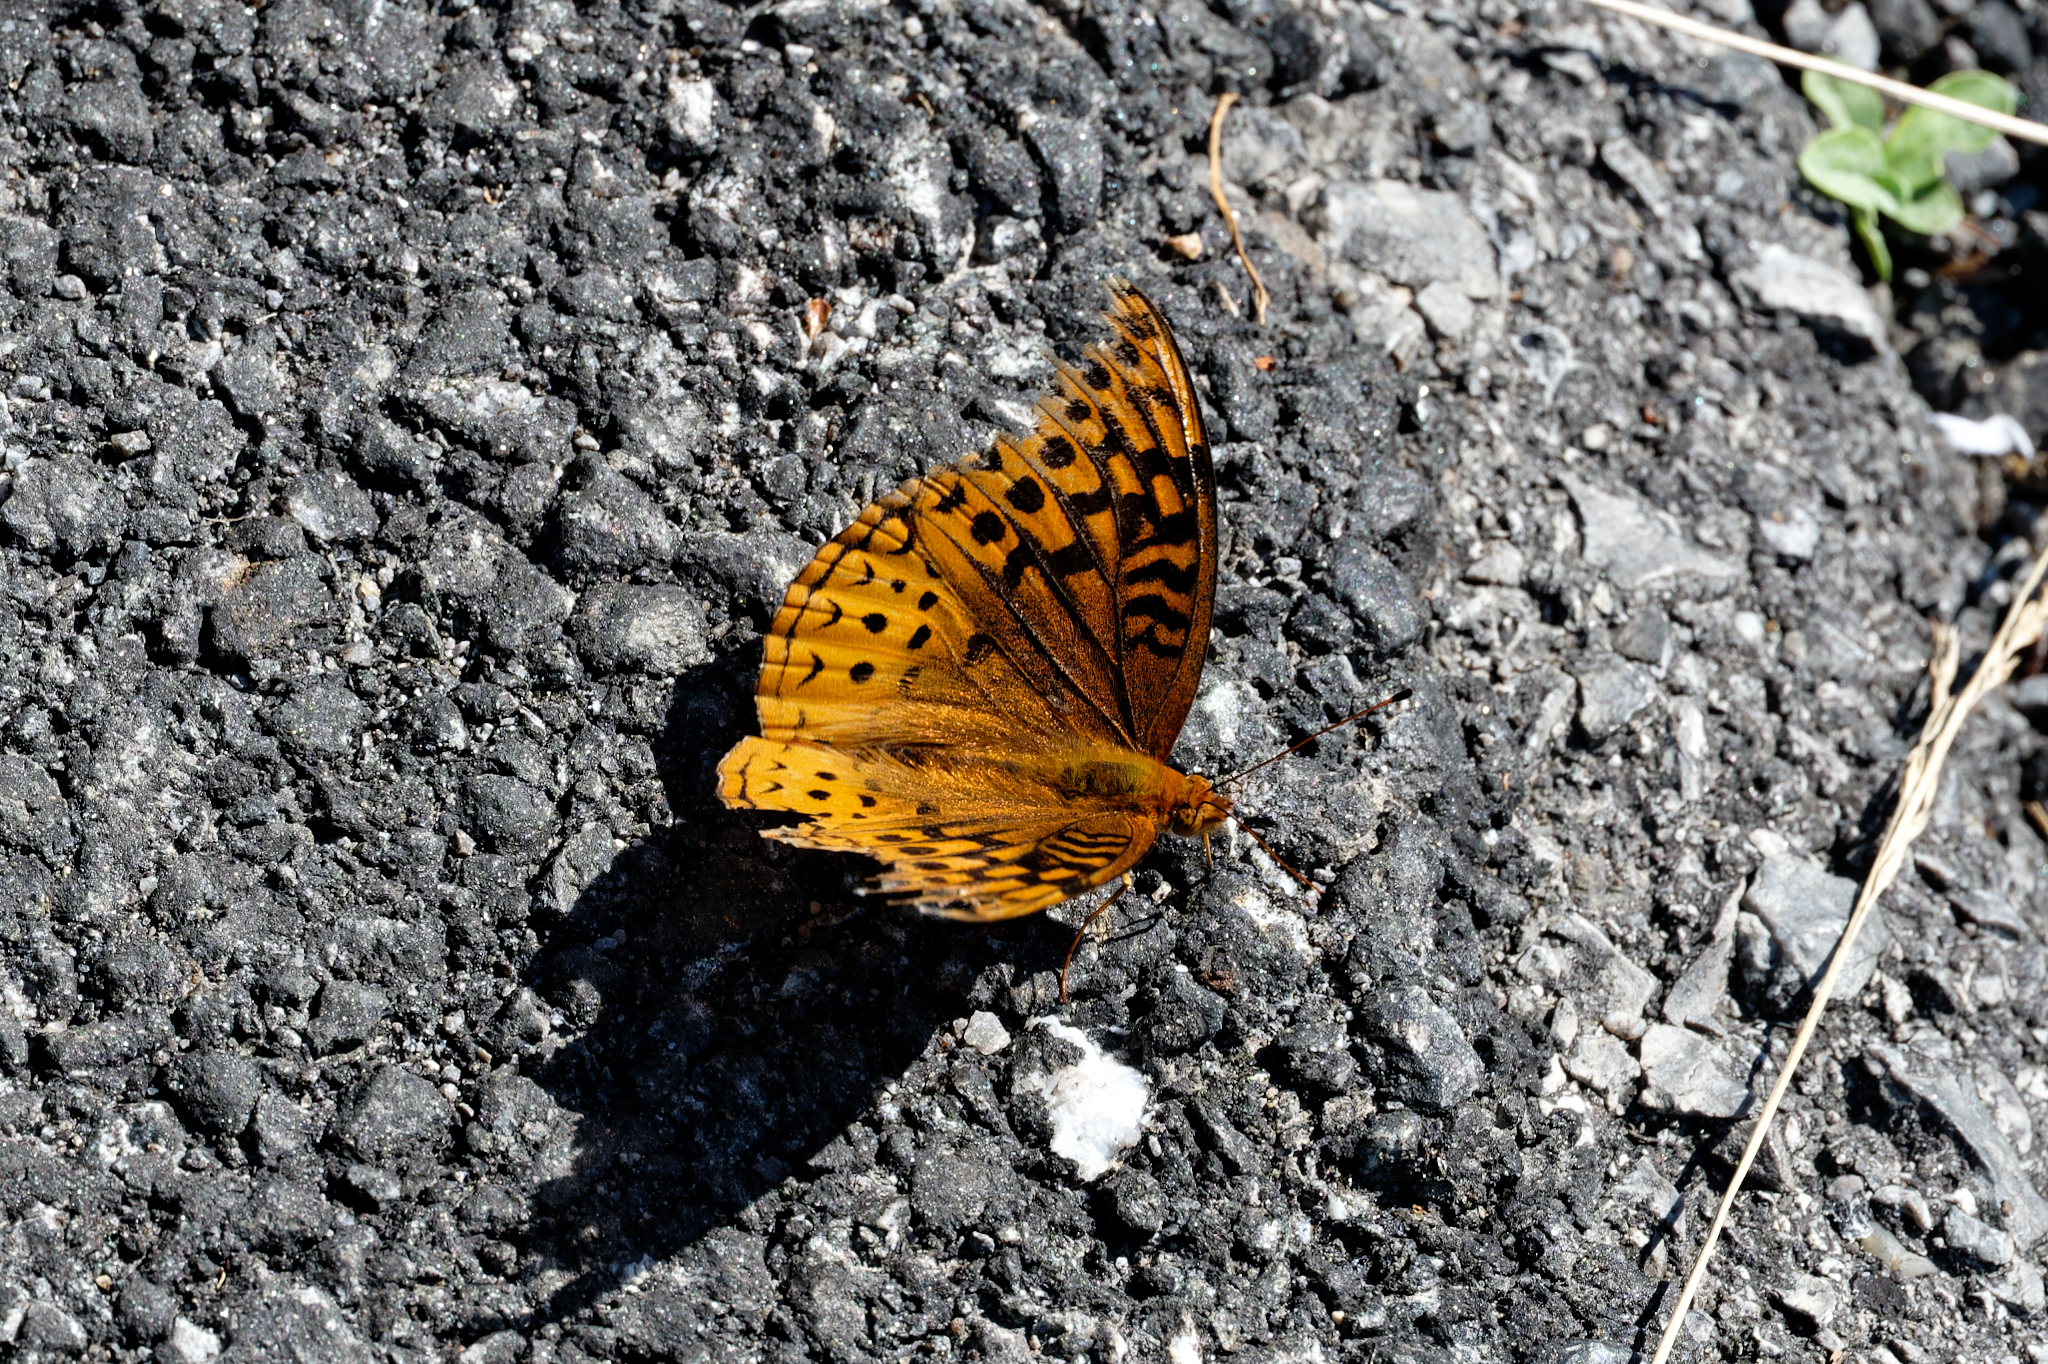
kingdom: Animalia
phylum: Arthropoda
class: Insecta
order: Lepidoptera
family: Nymphalidae
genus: Speyeria
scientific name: Speyeria cybele
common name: Great spangled fritillary
